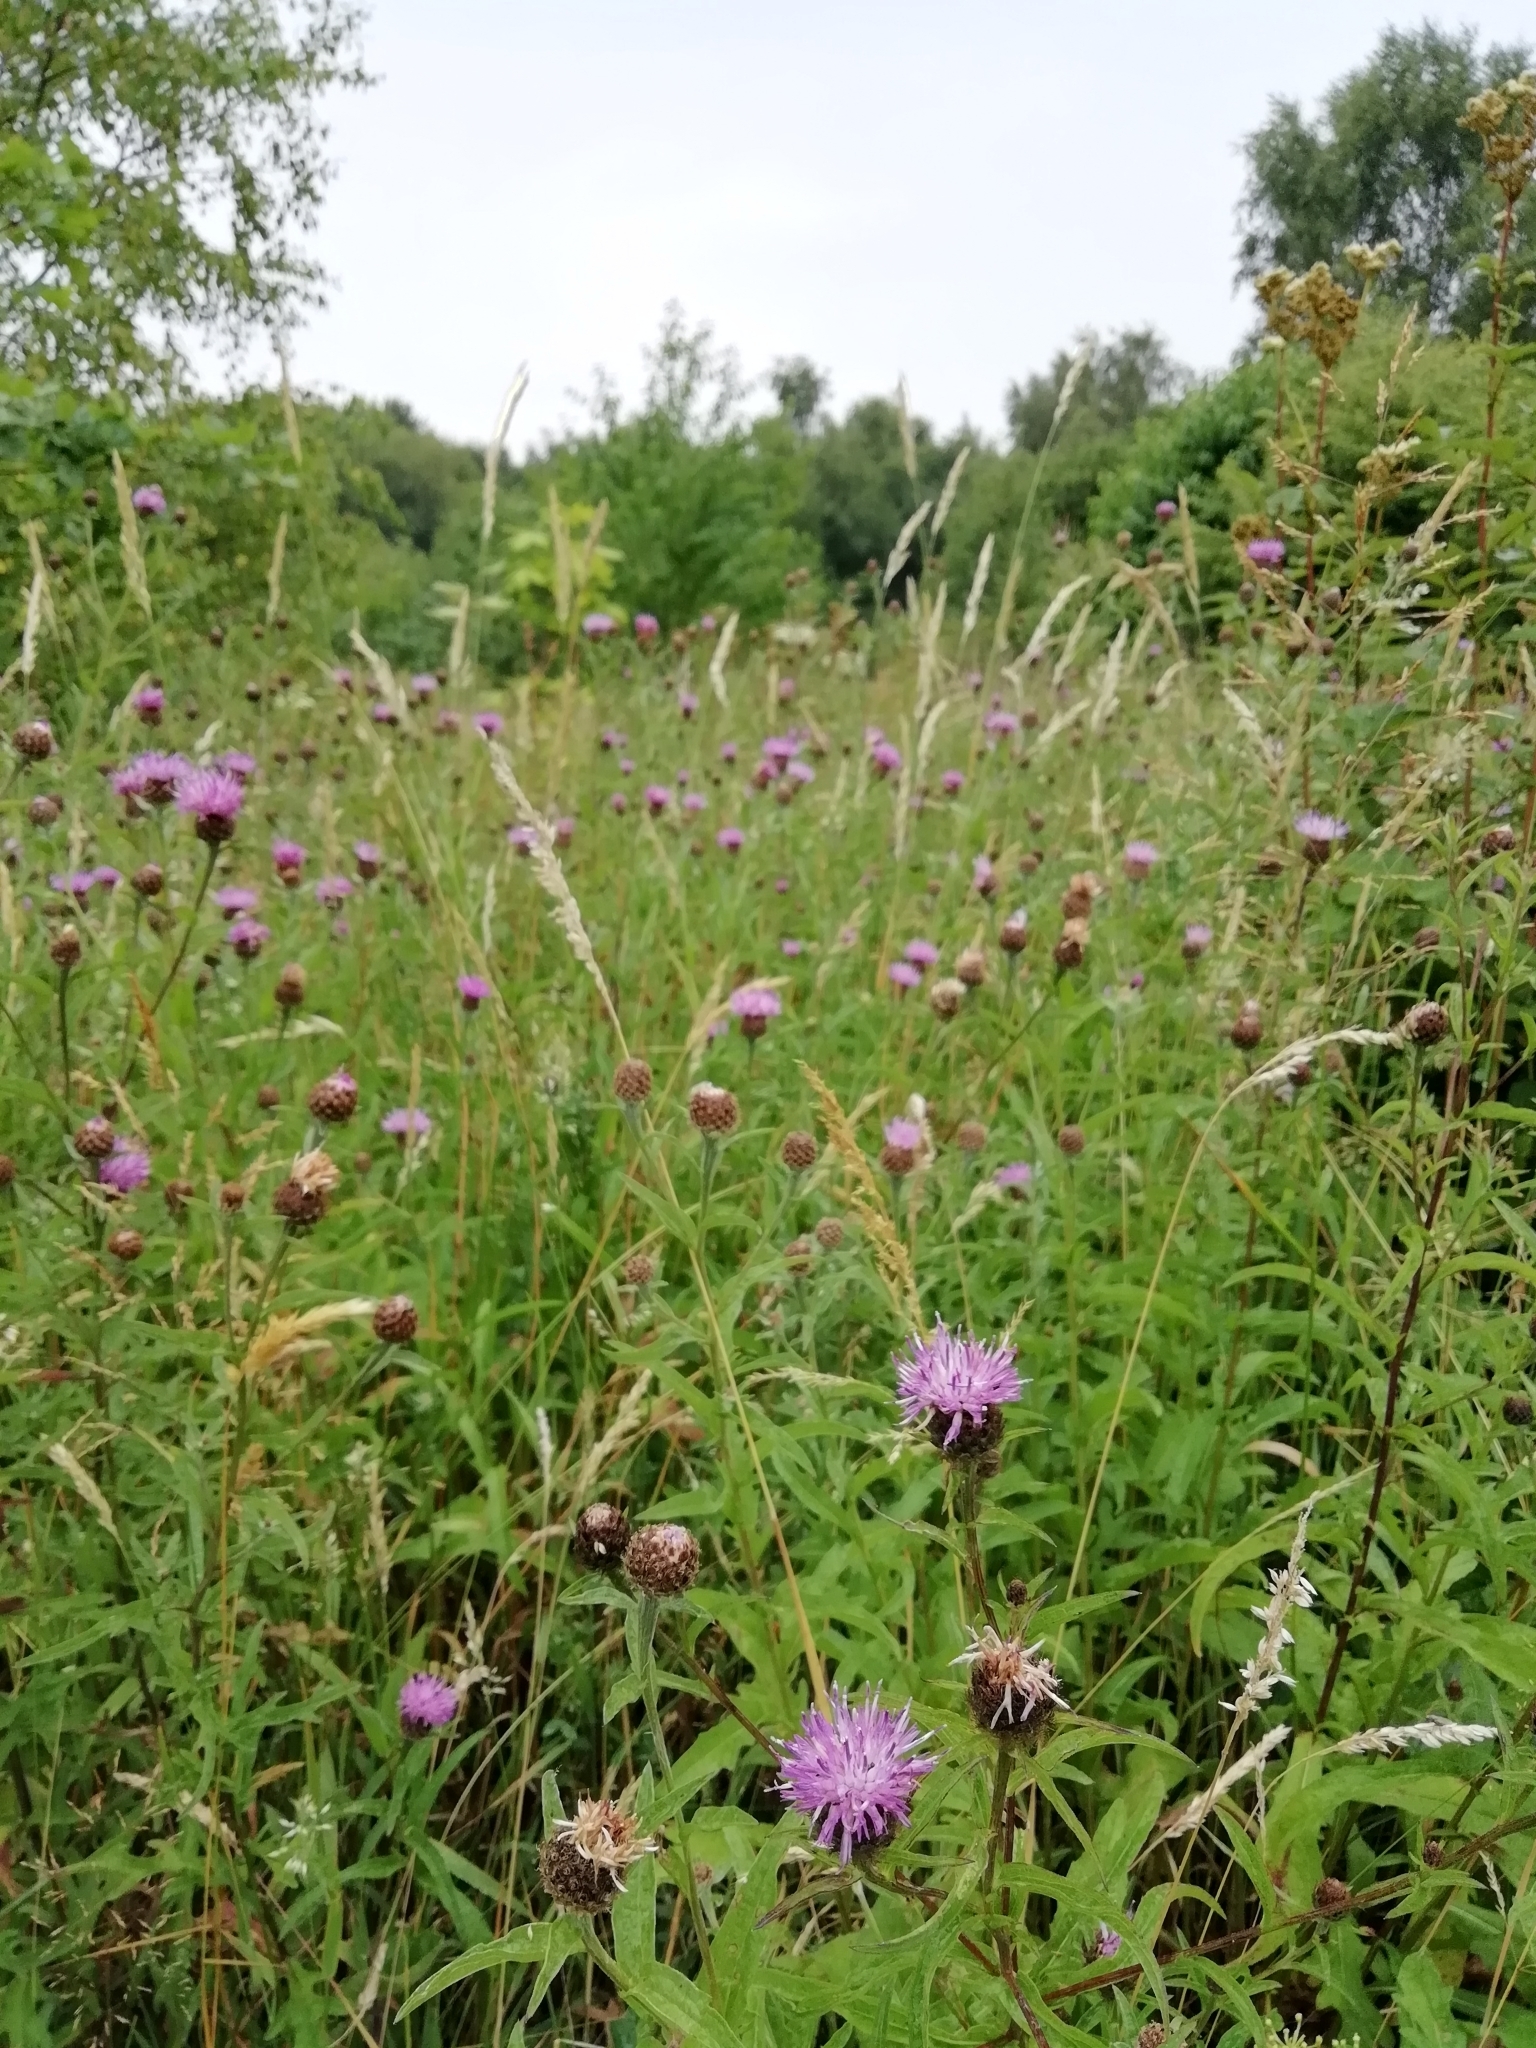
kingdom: Plantae
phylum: Tracheophyta
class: Magnoliopsida
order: Asterales
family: Asteraceae
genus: Centaurea
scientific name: Centaurea nigra
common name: Lesser knapweed
